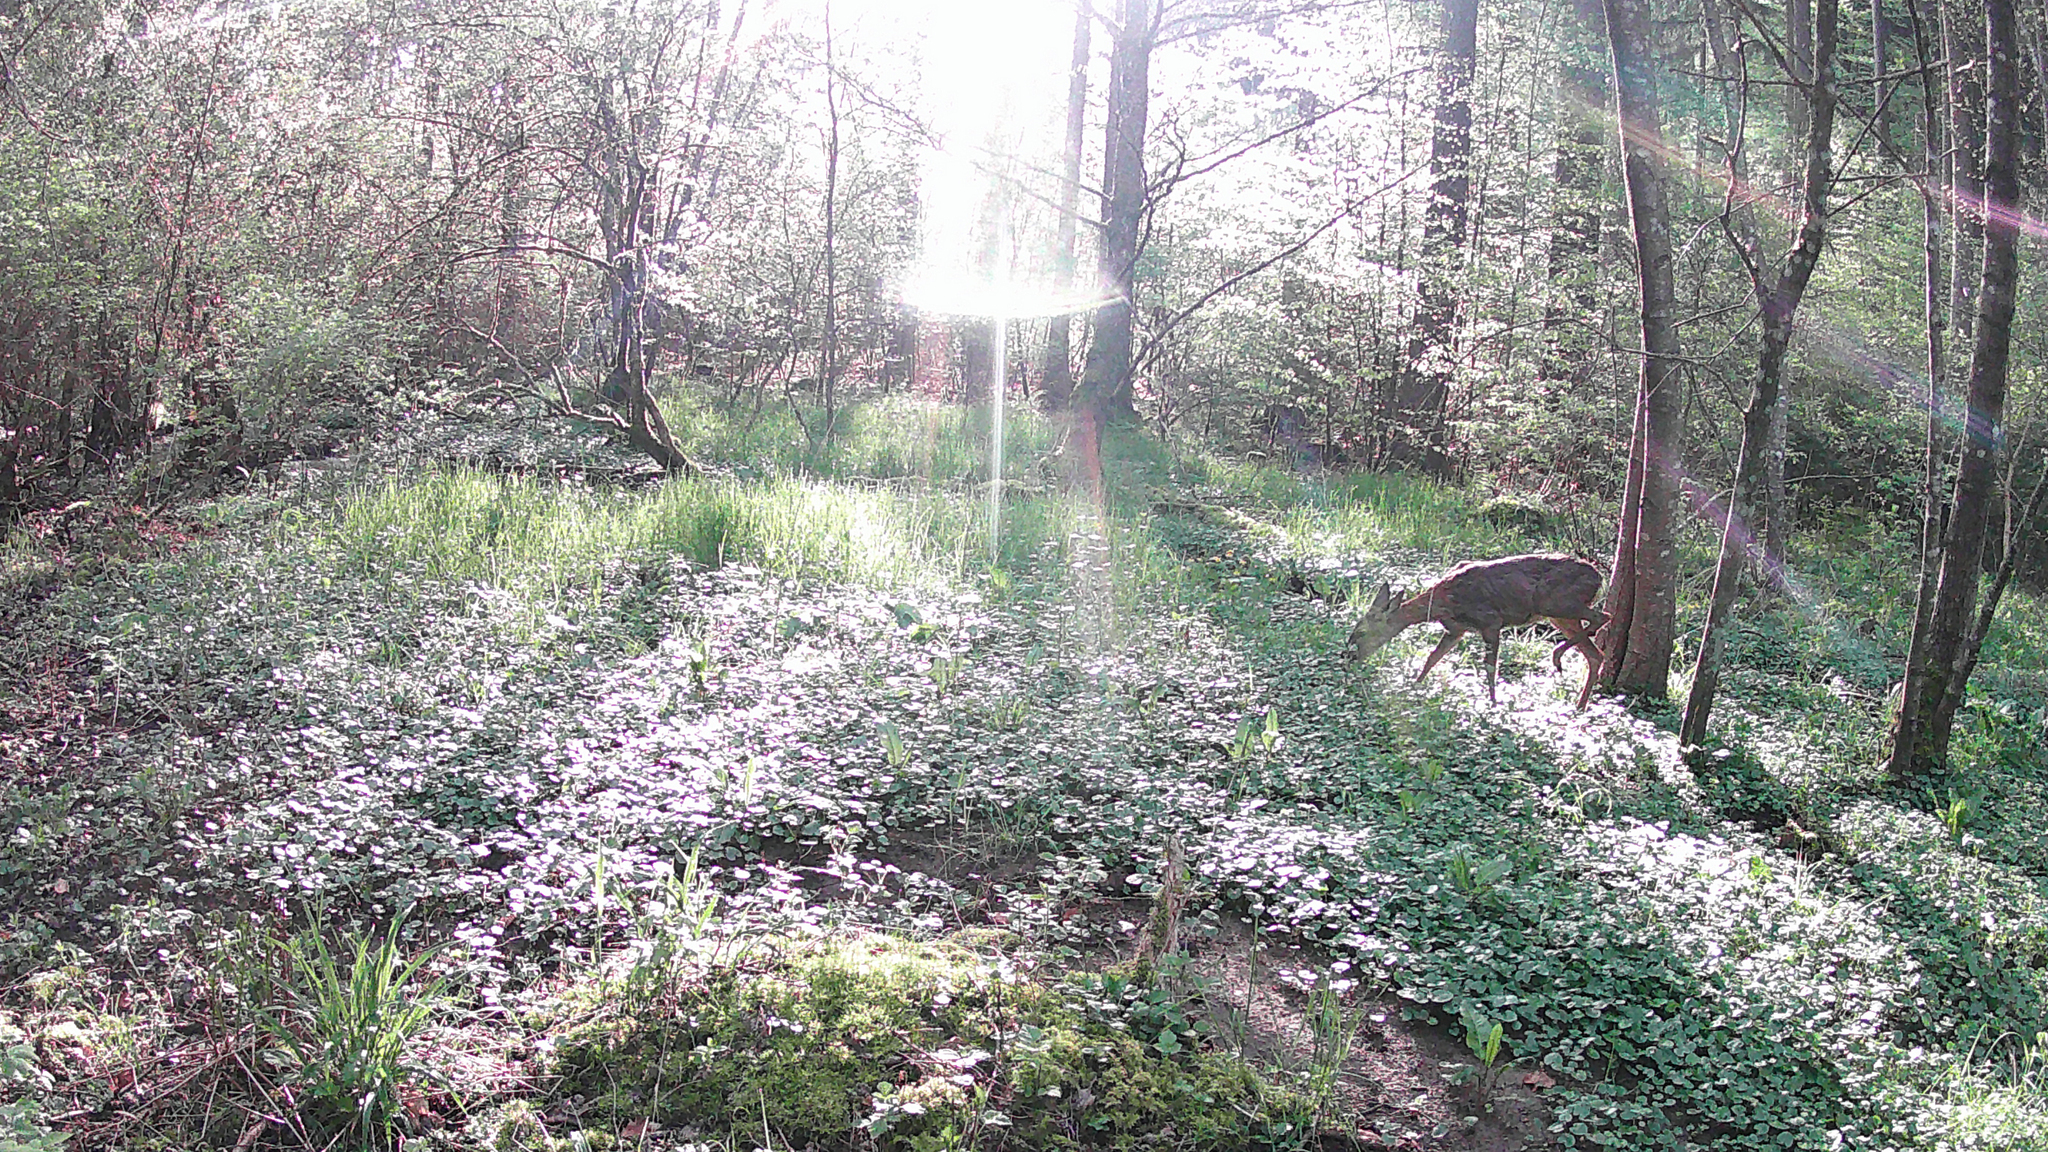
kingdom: Animalia
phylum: Chordata
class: Mammalia
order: Artiodactyla
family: Cervidae
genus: Capreolus
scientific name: Capreolus capreolus
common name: Western roe deer
